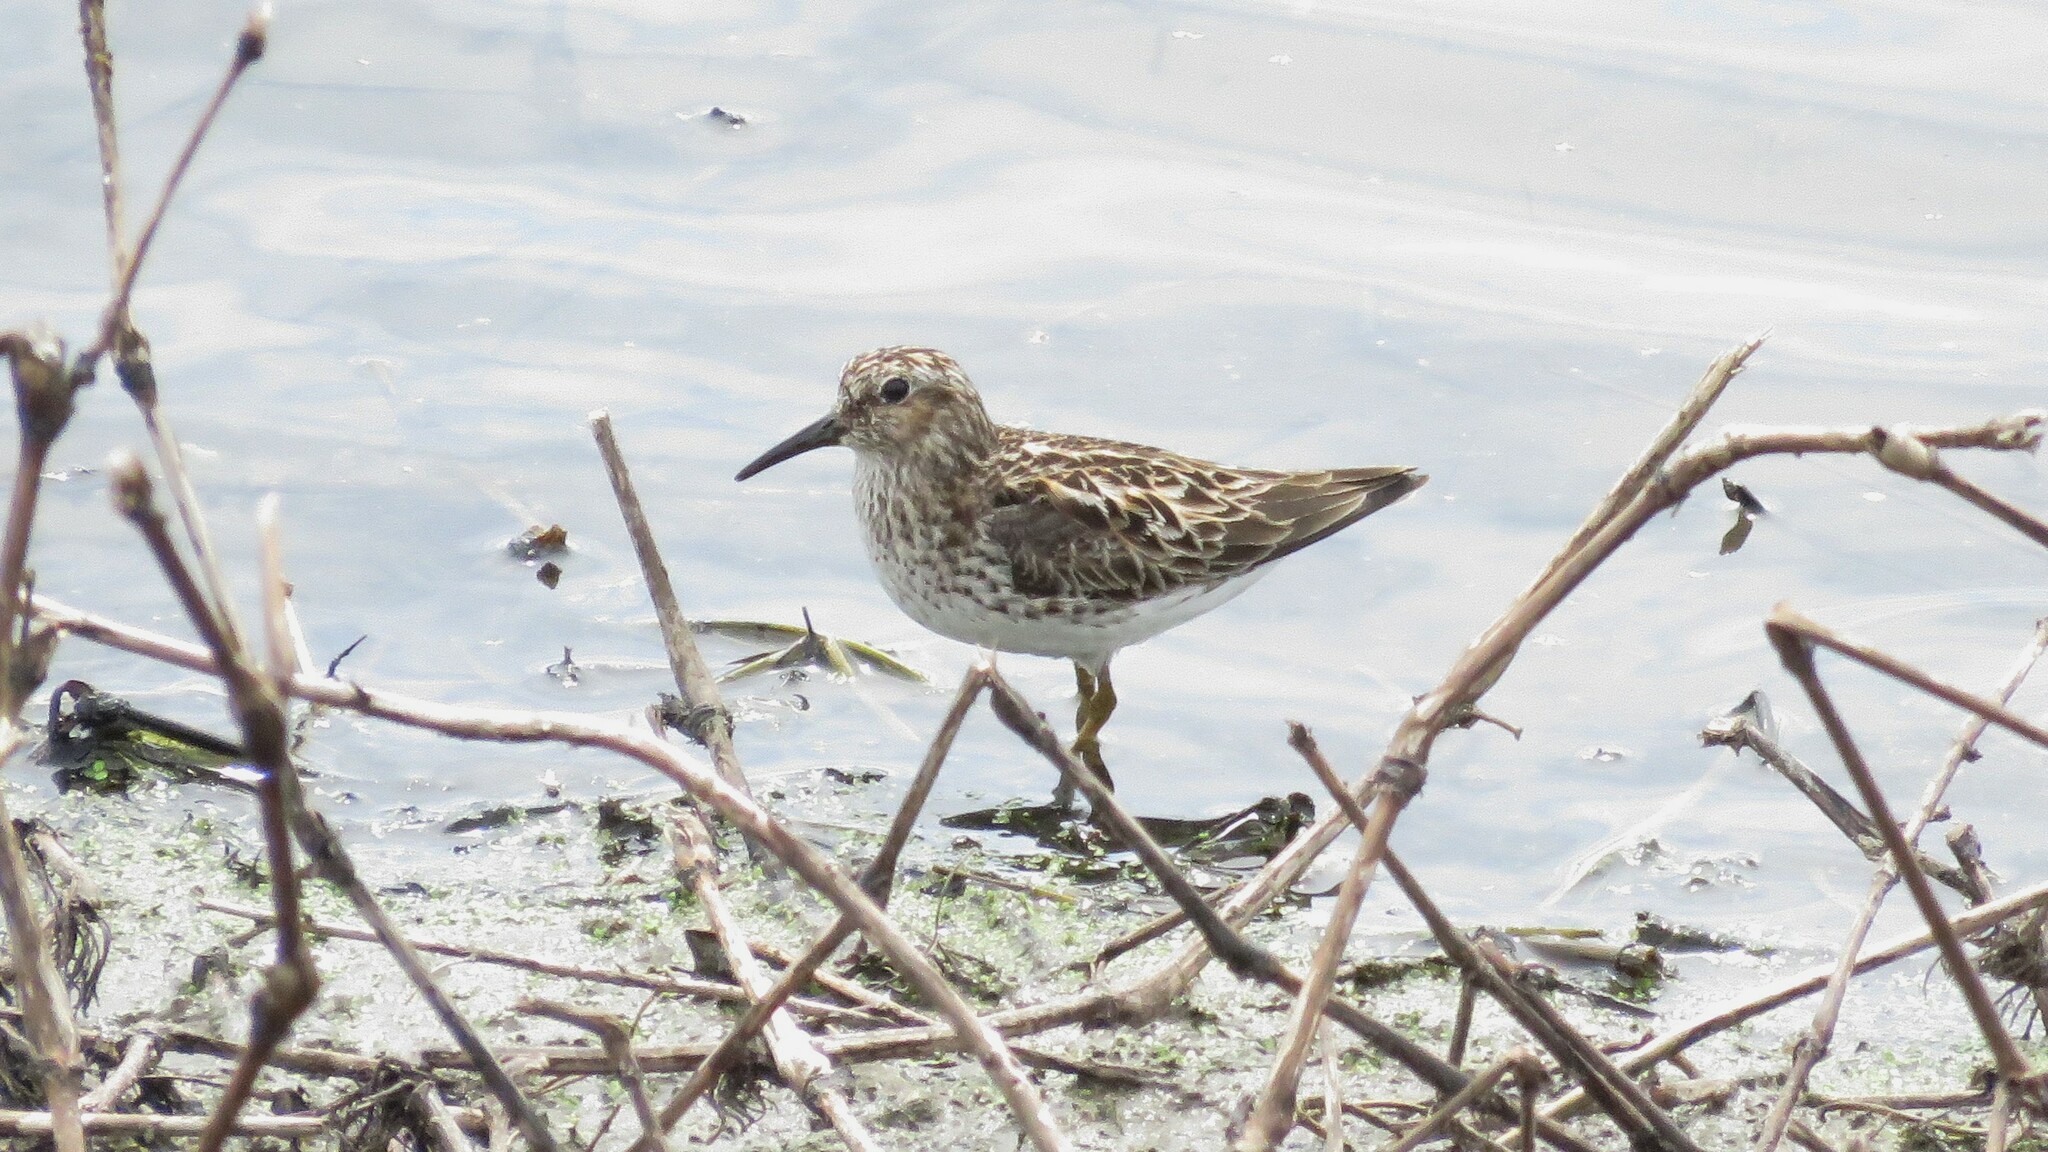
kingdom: Animalia
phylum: Chordata
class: Aves
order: Charadriiformes
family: Scolopacidae
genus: Calidris
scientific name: Calidris minutilla
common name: Least sandpiper
